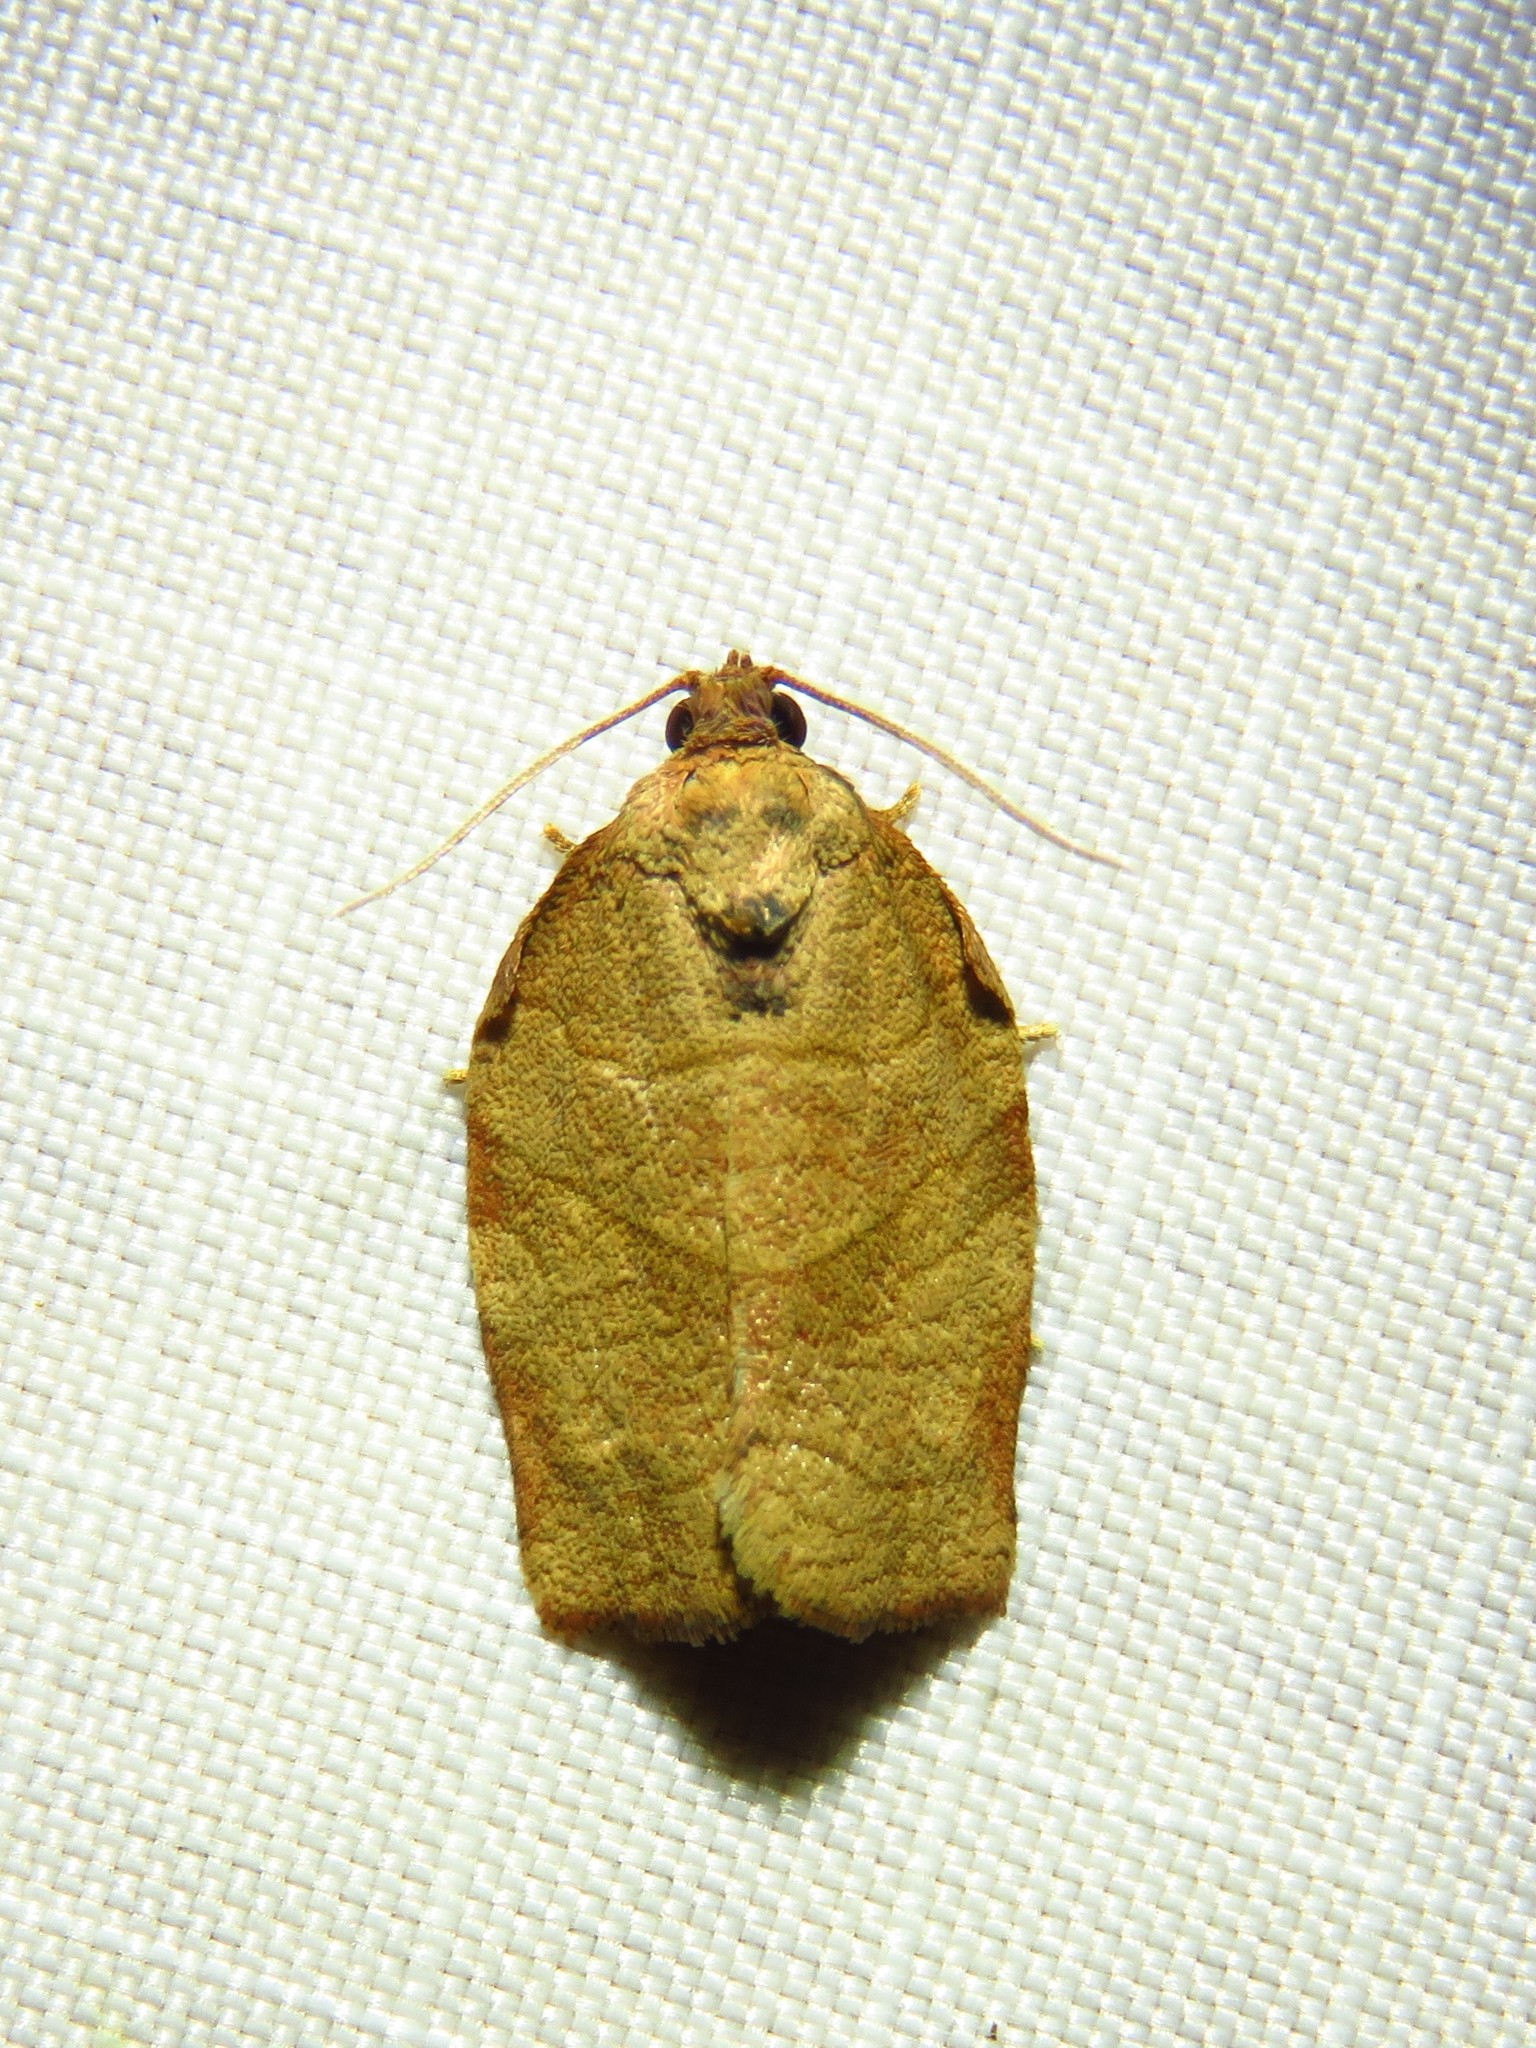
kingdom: Animalia
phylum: Arthropoda
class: Insecta
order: Lepidoptera
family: Tortricidae
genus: Choristoneura
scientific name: Choristoneura rosaceana
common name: Oblique-banded leafroller moth
